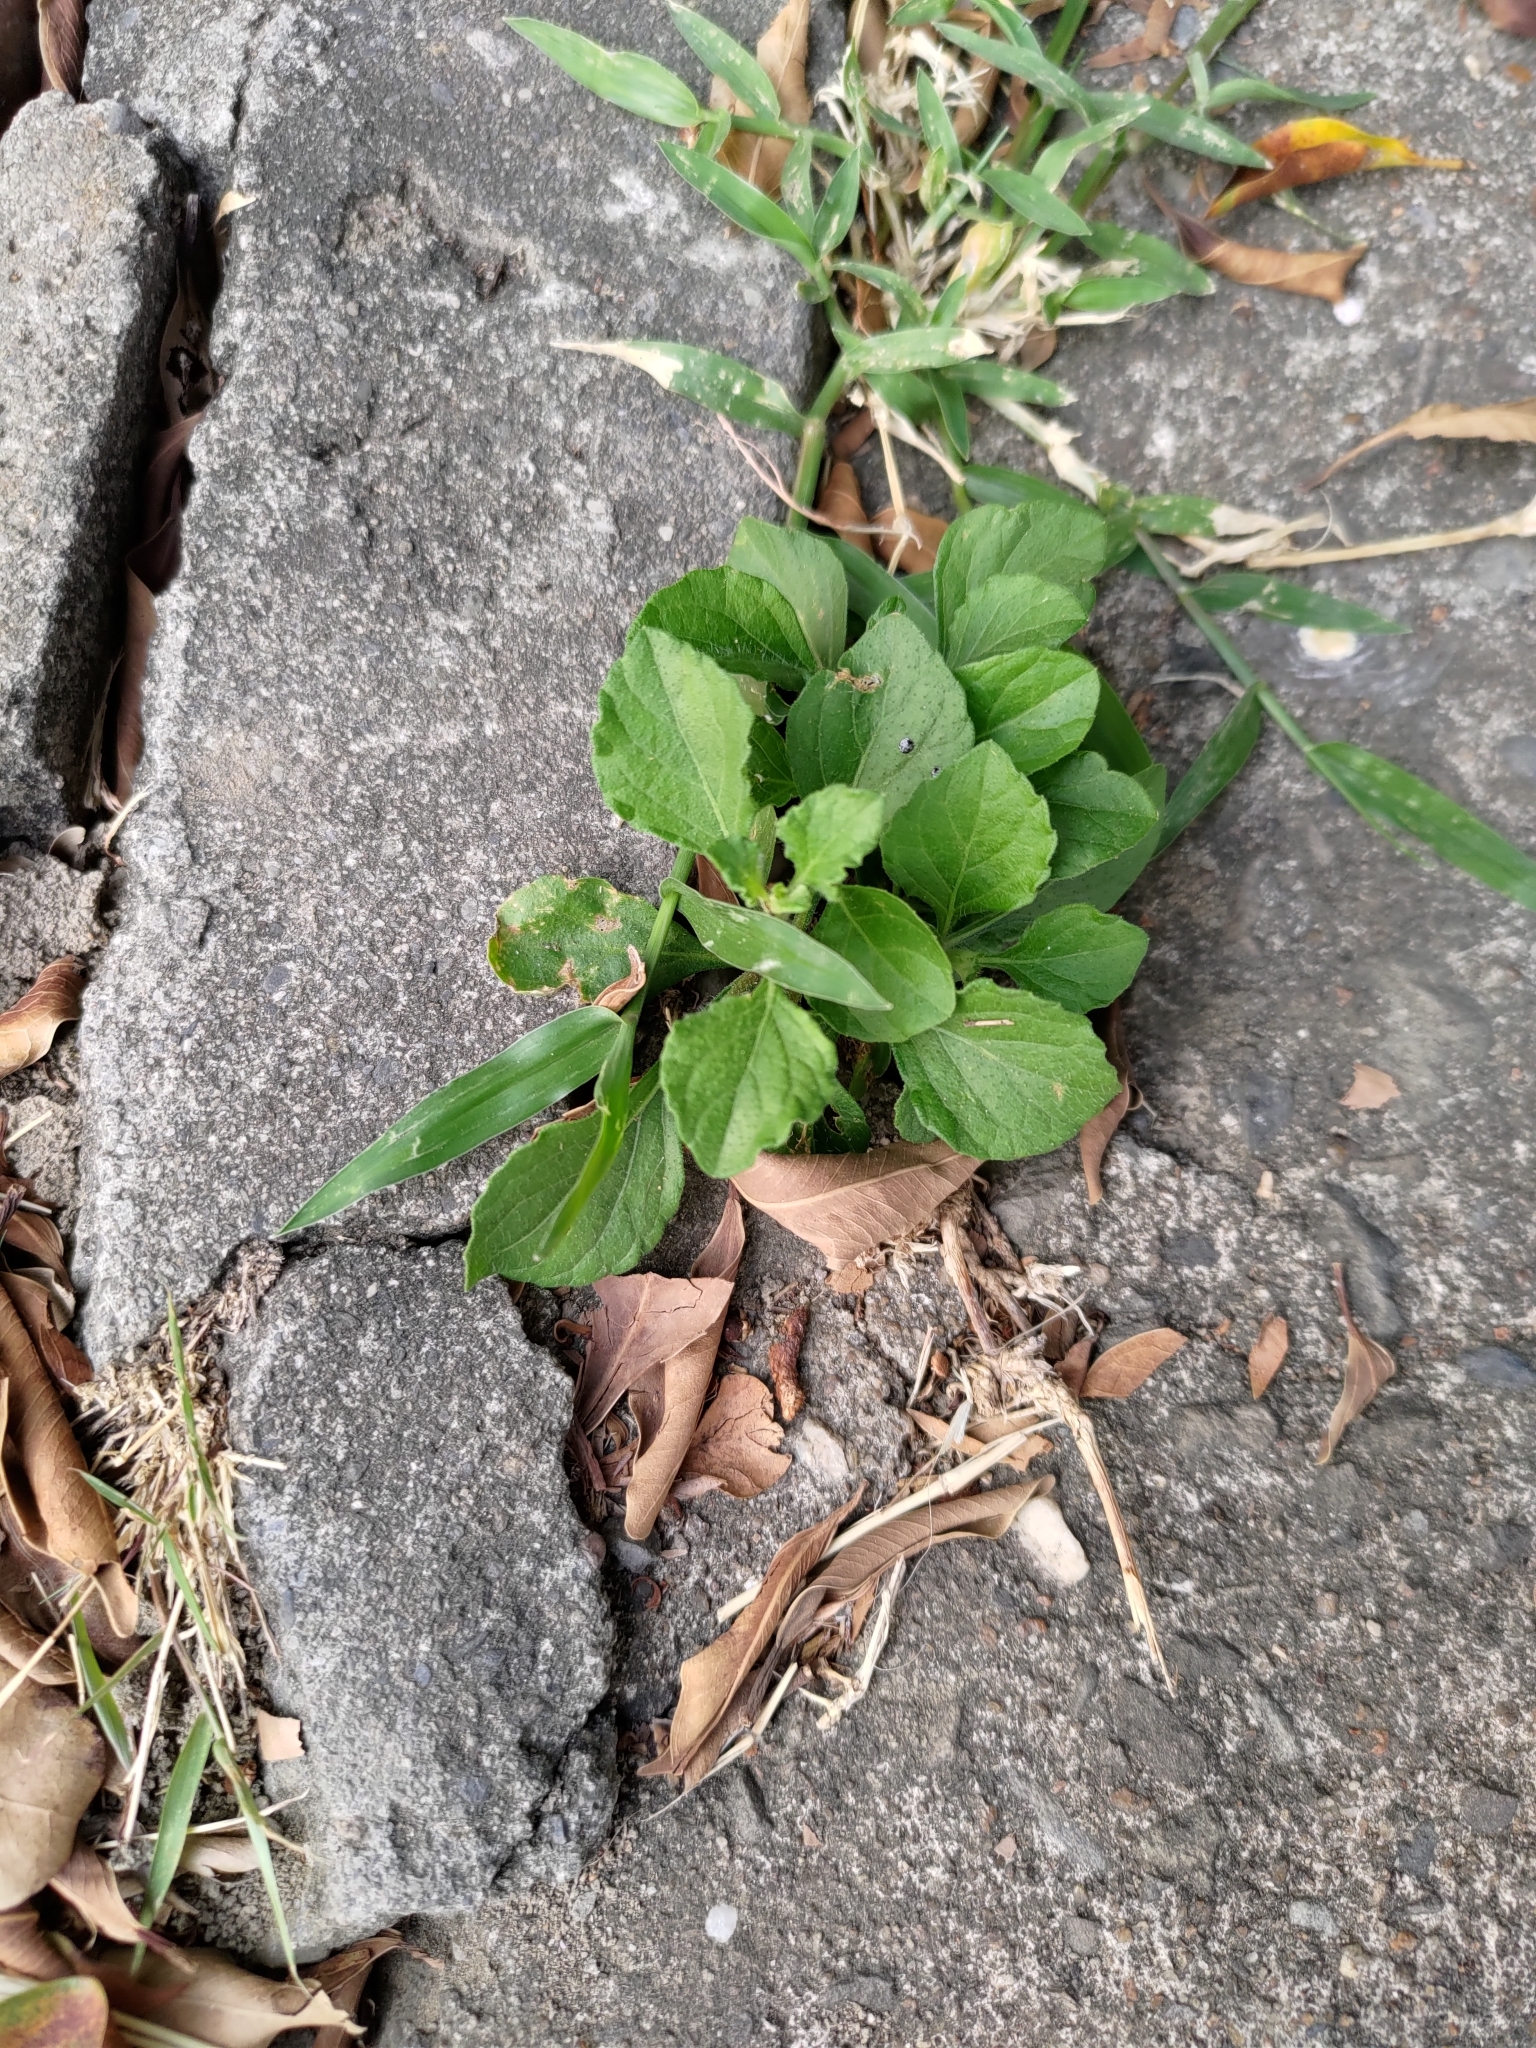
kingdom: Plantae
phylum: Tracheophyta
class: Magnoliopsida
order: Asterales
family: Asteraceae
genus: Cyanthillium
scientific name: Cyanthillium cinereum
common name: Little ironweed
